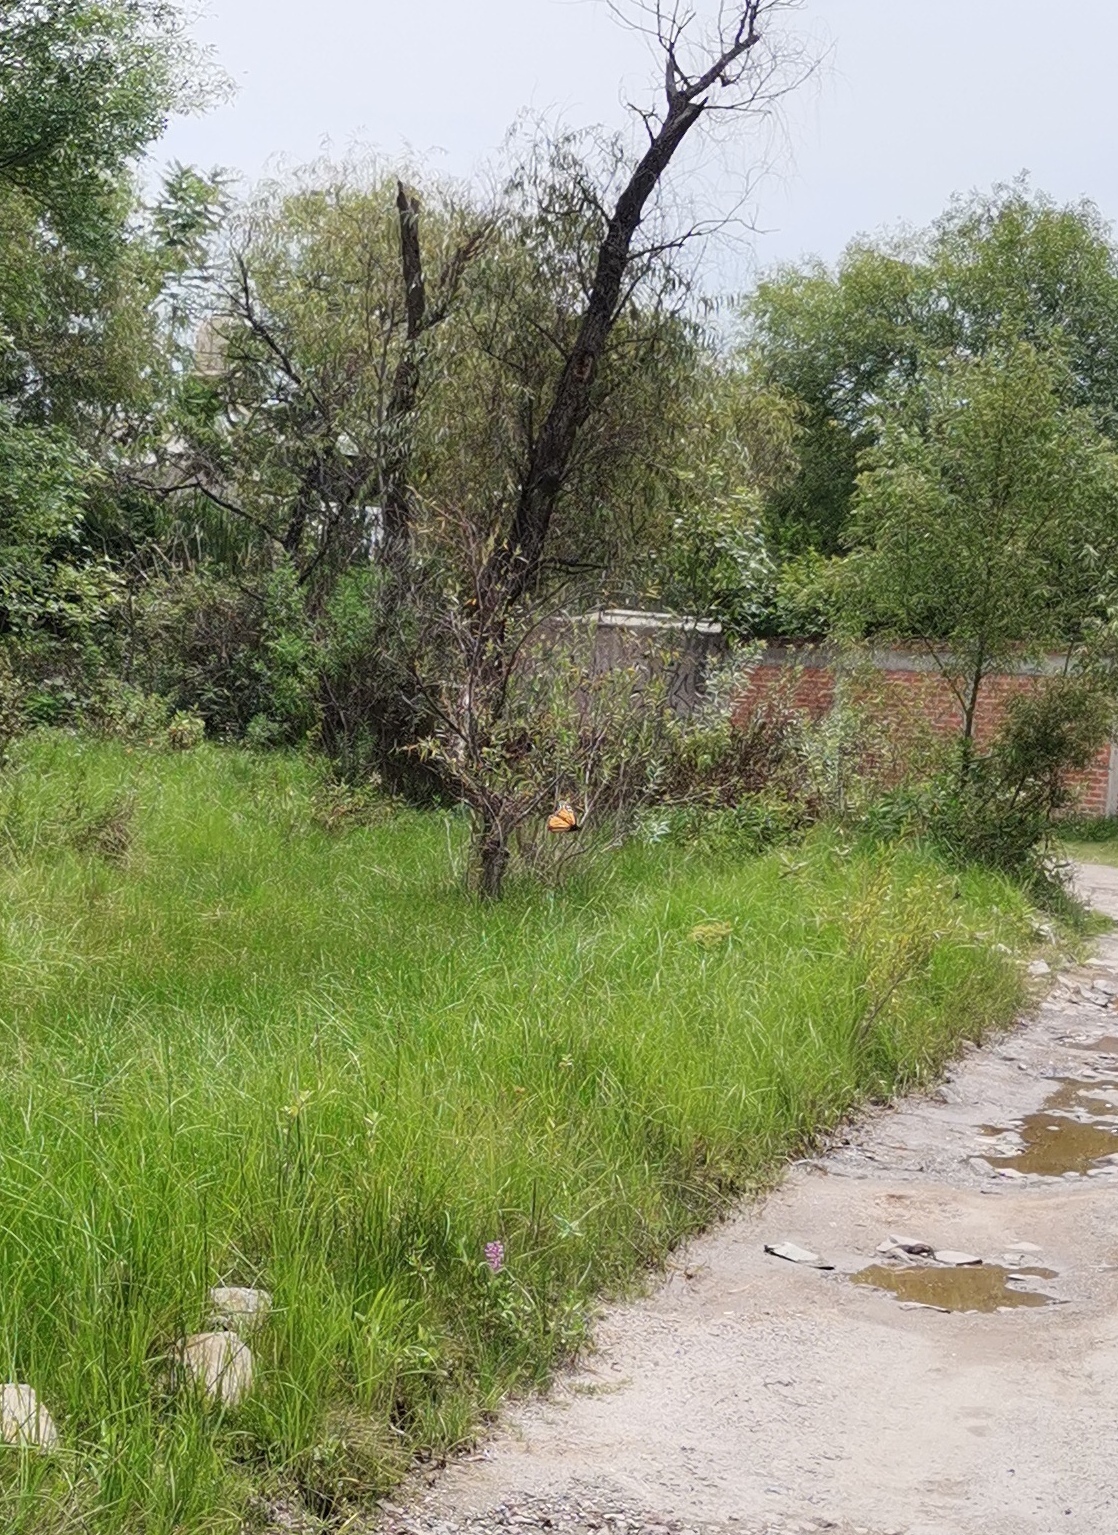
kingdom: Animalia
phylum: Arthropoda
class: Insecta
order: Lepidoptera
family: Nymphalidae
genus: Danaus
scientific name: Danaus plexippus
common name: Monarch
